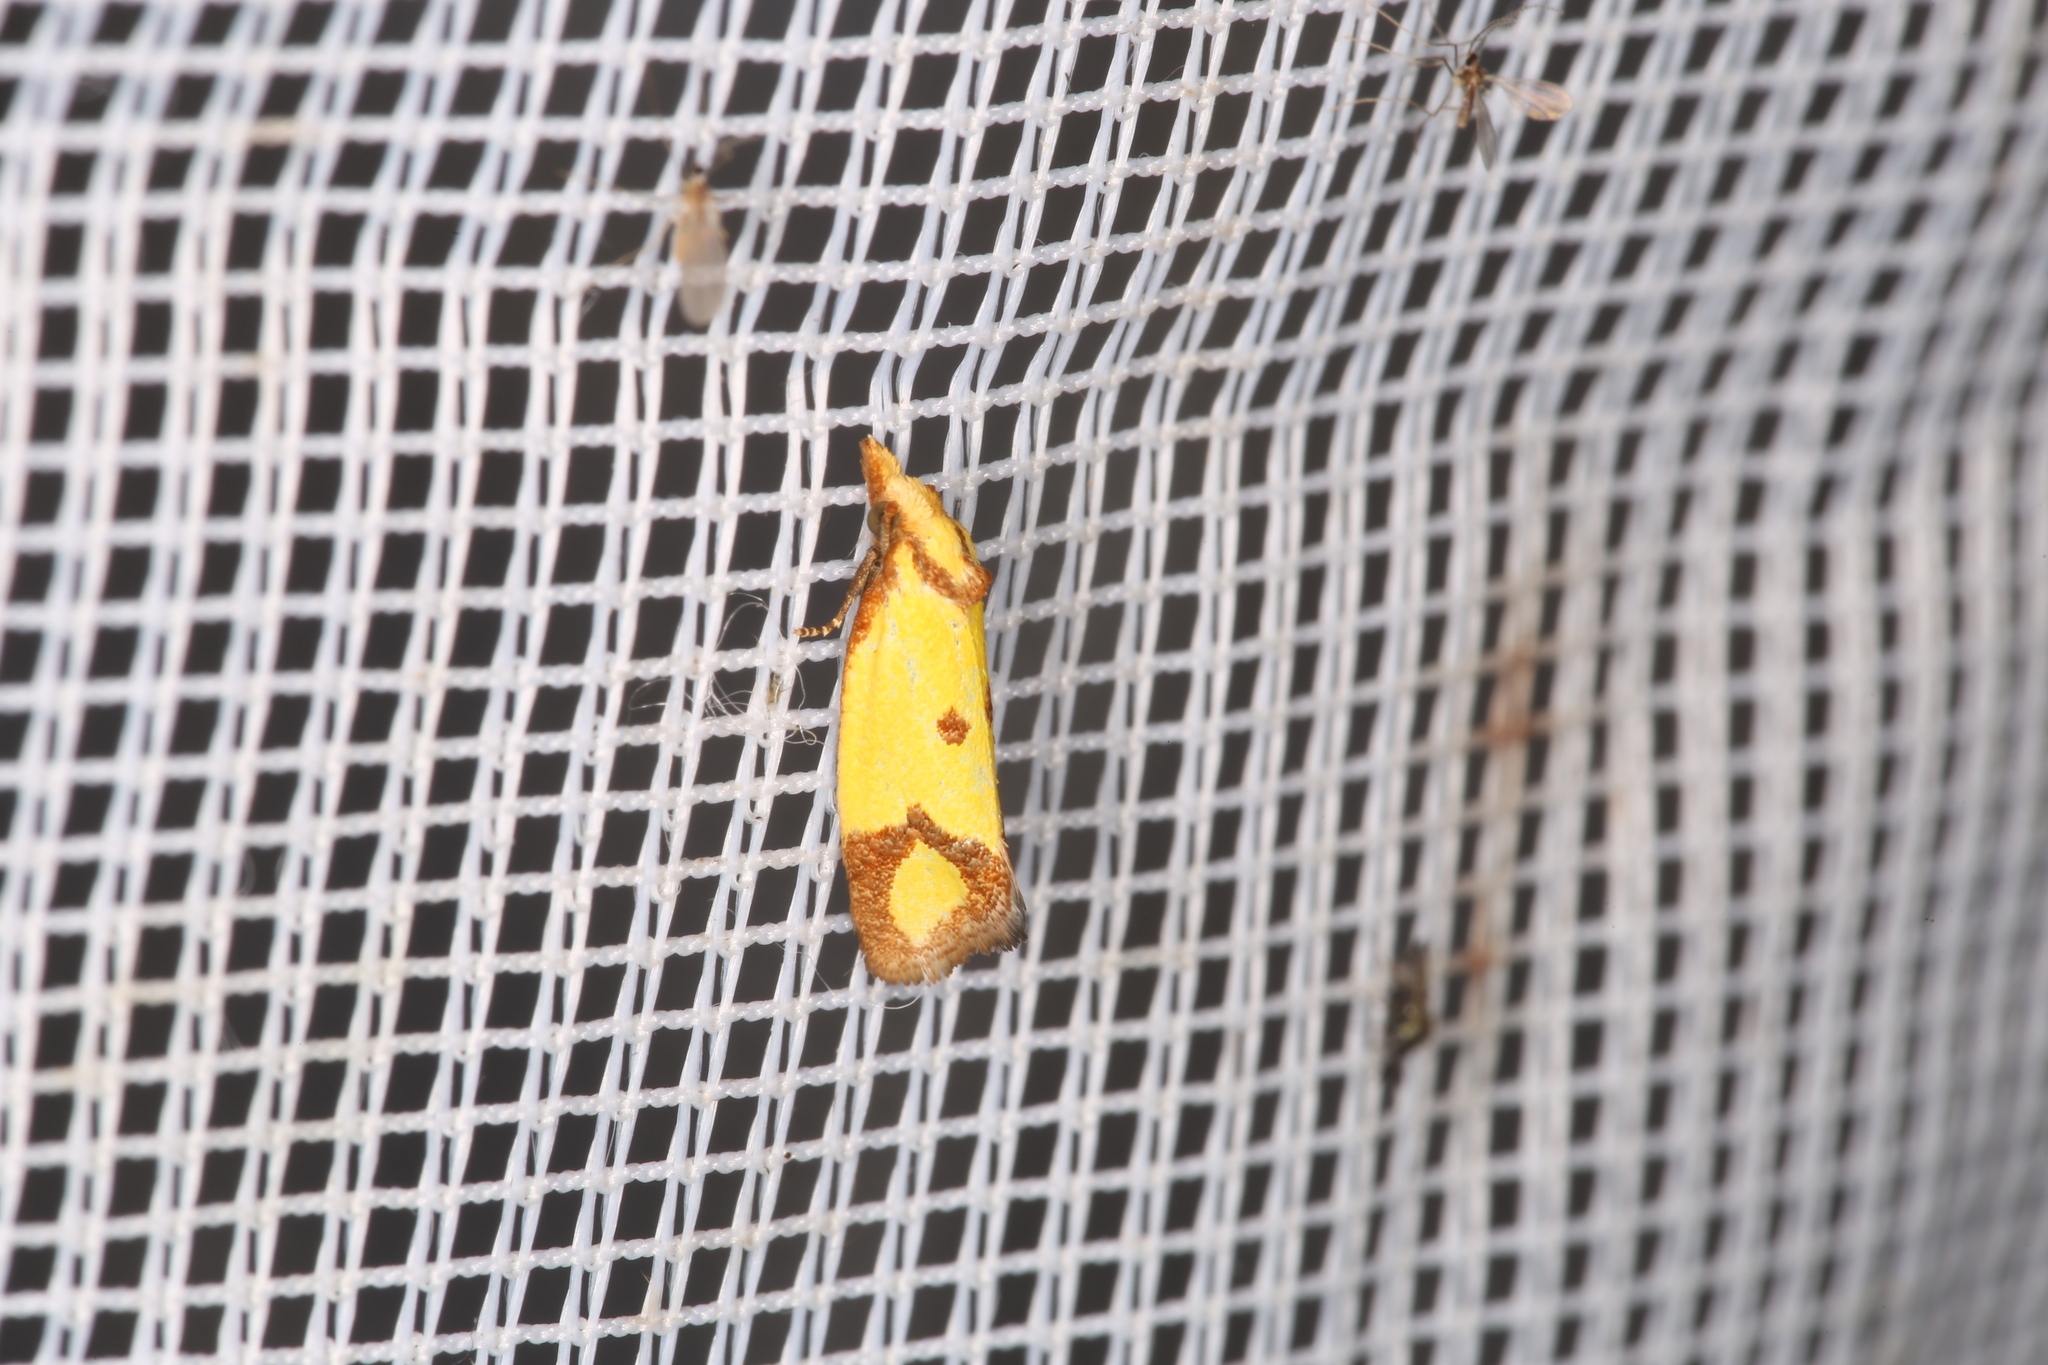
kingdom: Animalia
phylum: Arthropoda
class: Insecta
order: Lepidoptera
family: Tortricidae
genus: Agapeta
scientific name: Agapeta zoegana
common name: Sulfur knapweed root moth
